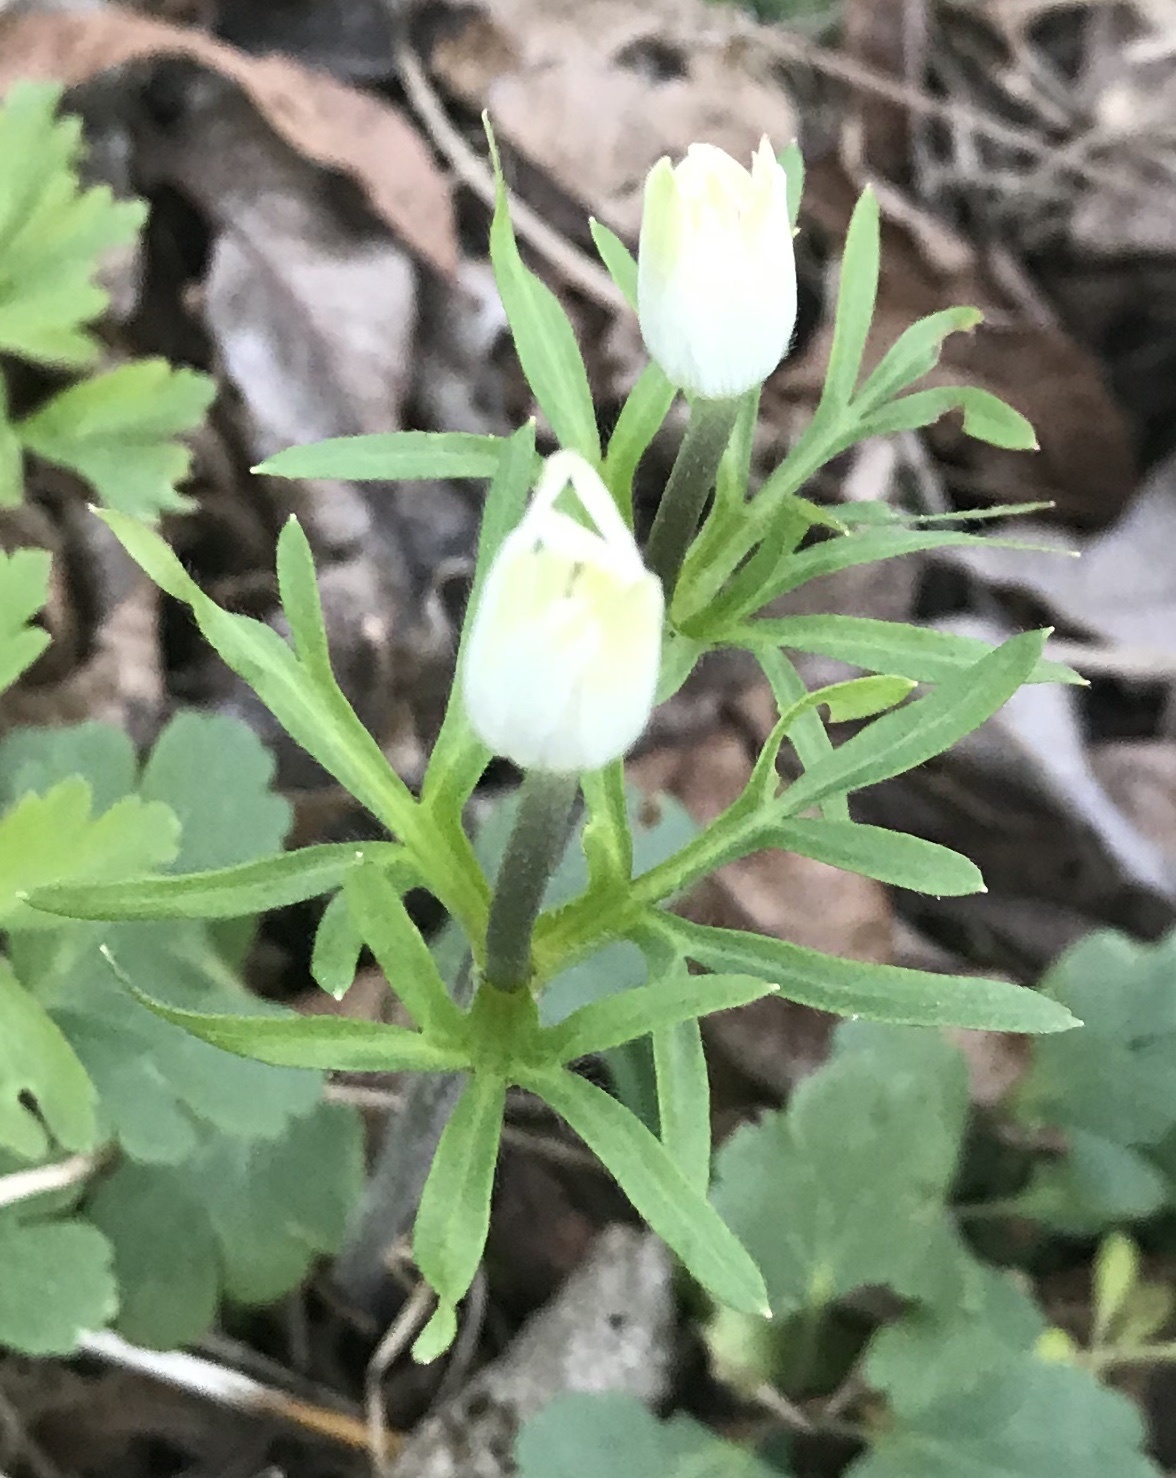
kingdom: Plantae
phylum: Tracheophyta
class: Magnoliopsida
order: Ranunculales
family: Ranunculaceae
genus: Anemone
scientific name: Anemone berlandieri
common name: Ten-petal anemone
